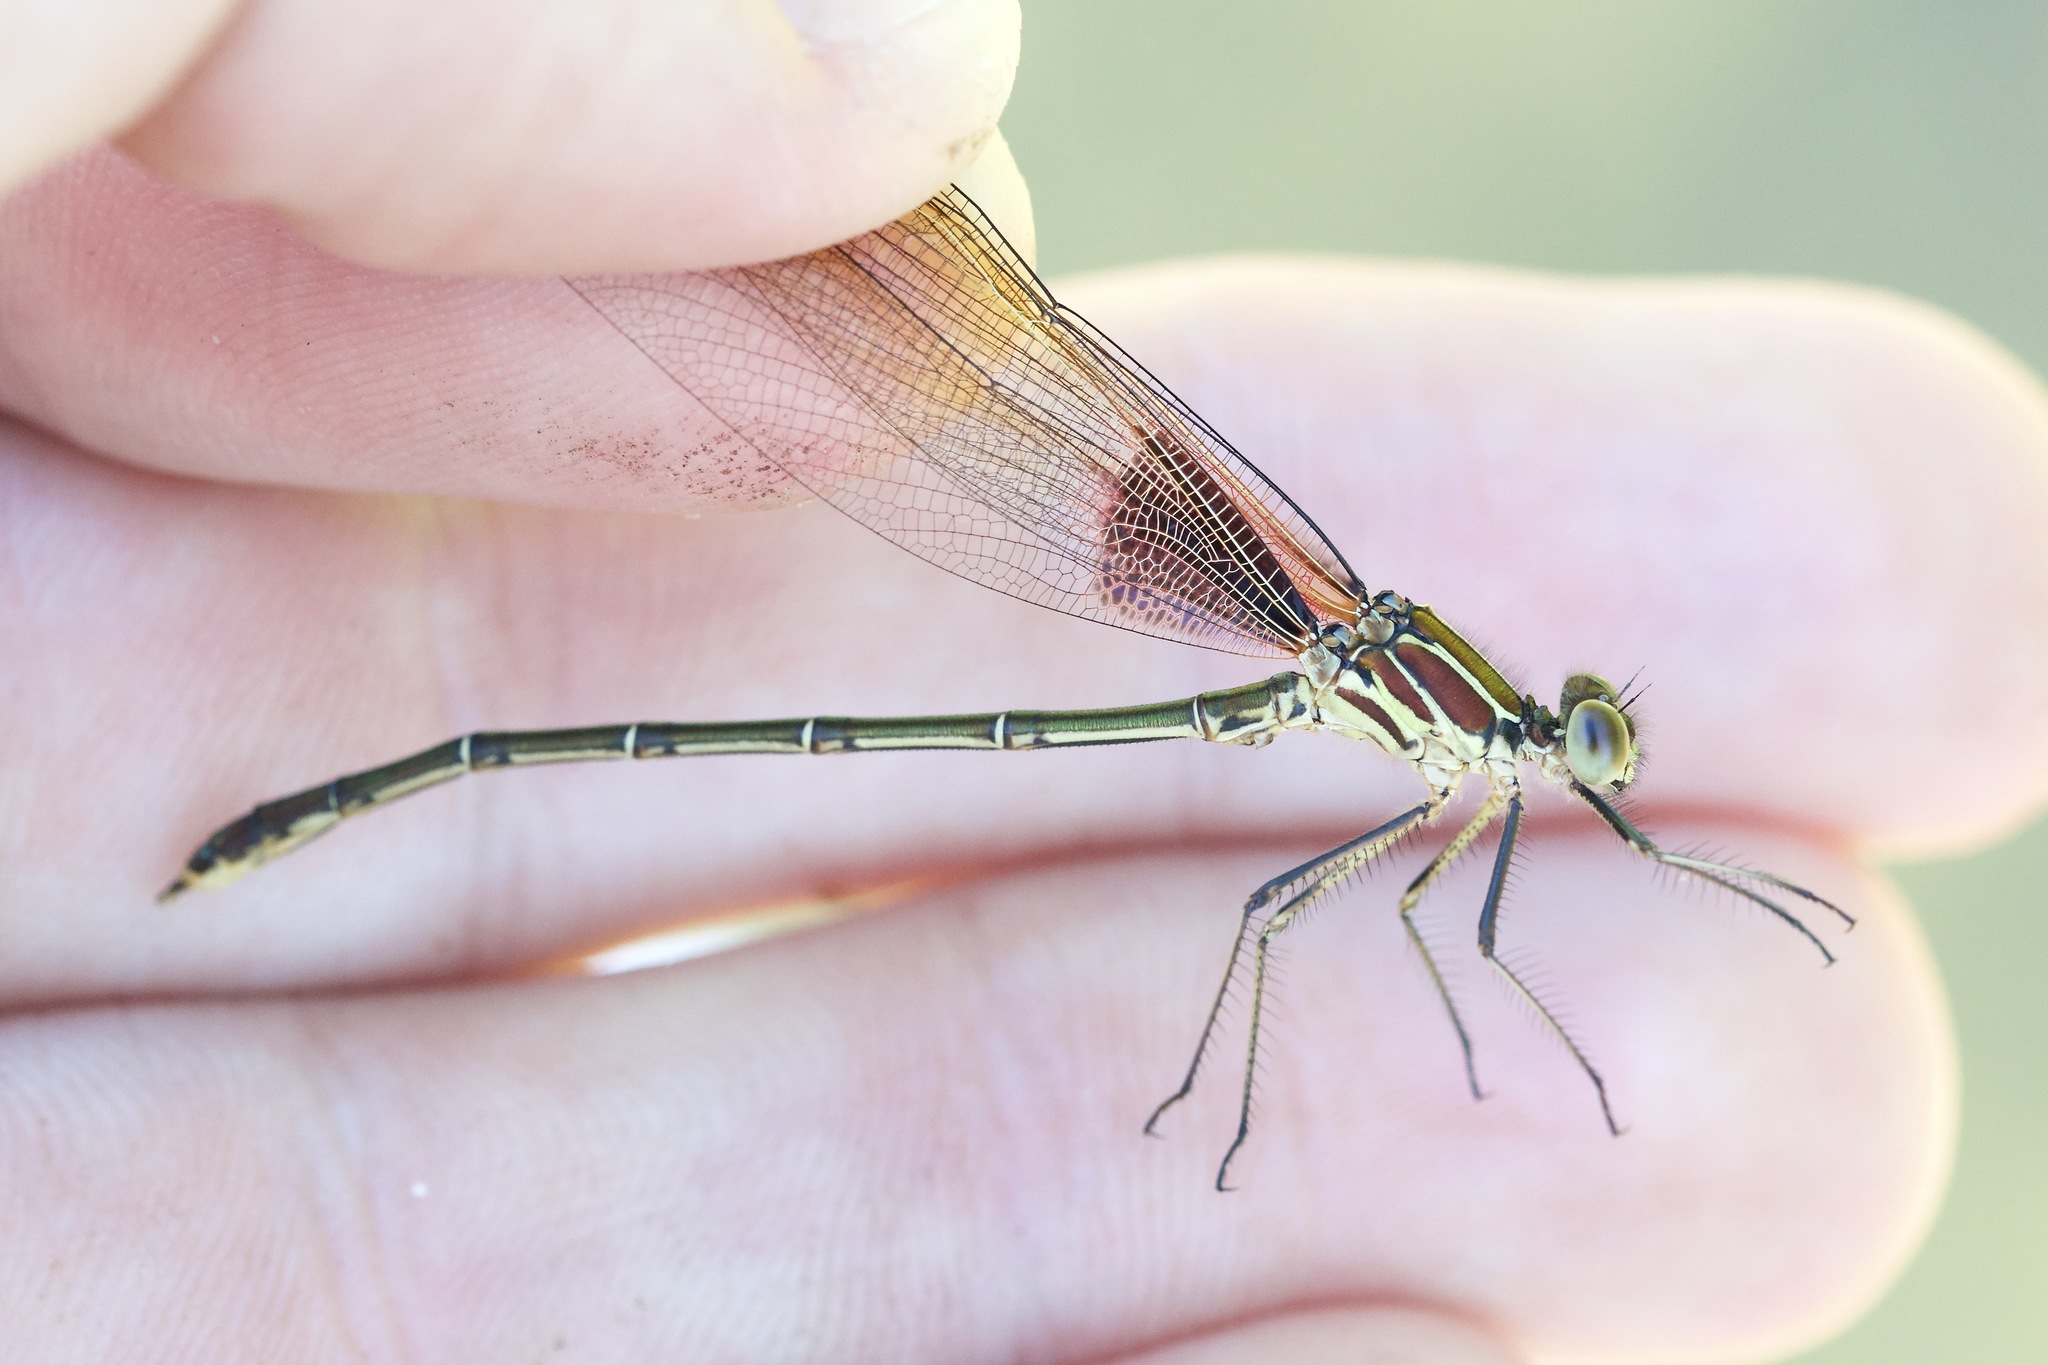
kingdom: Animalia
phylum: Arthropoda
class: Insecta
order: Odonata
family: Calopterygidae
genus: Hetaerina
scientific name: Hetaerina americana
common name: American rubyspot
